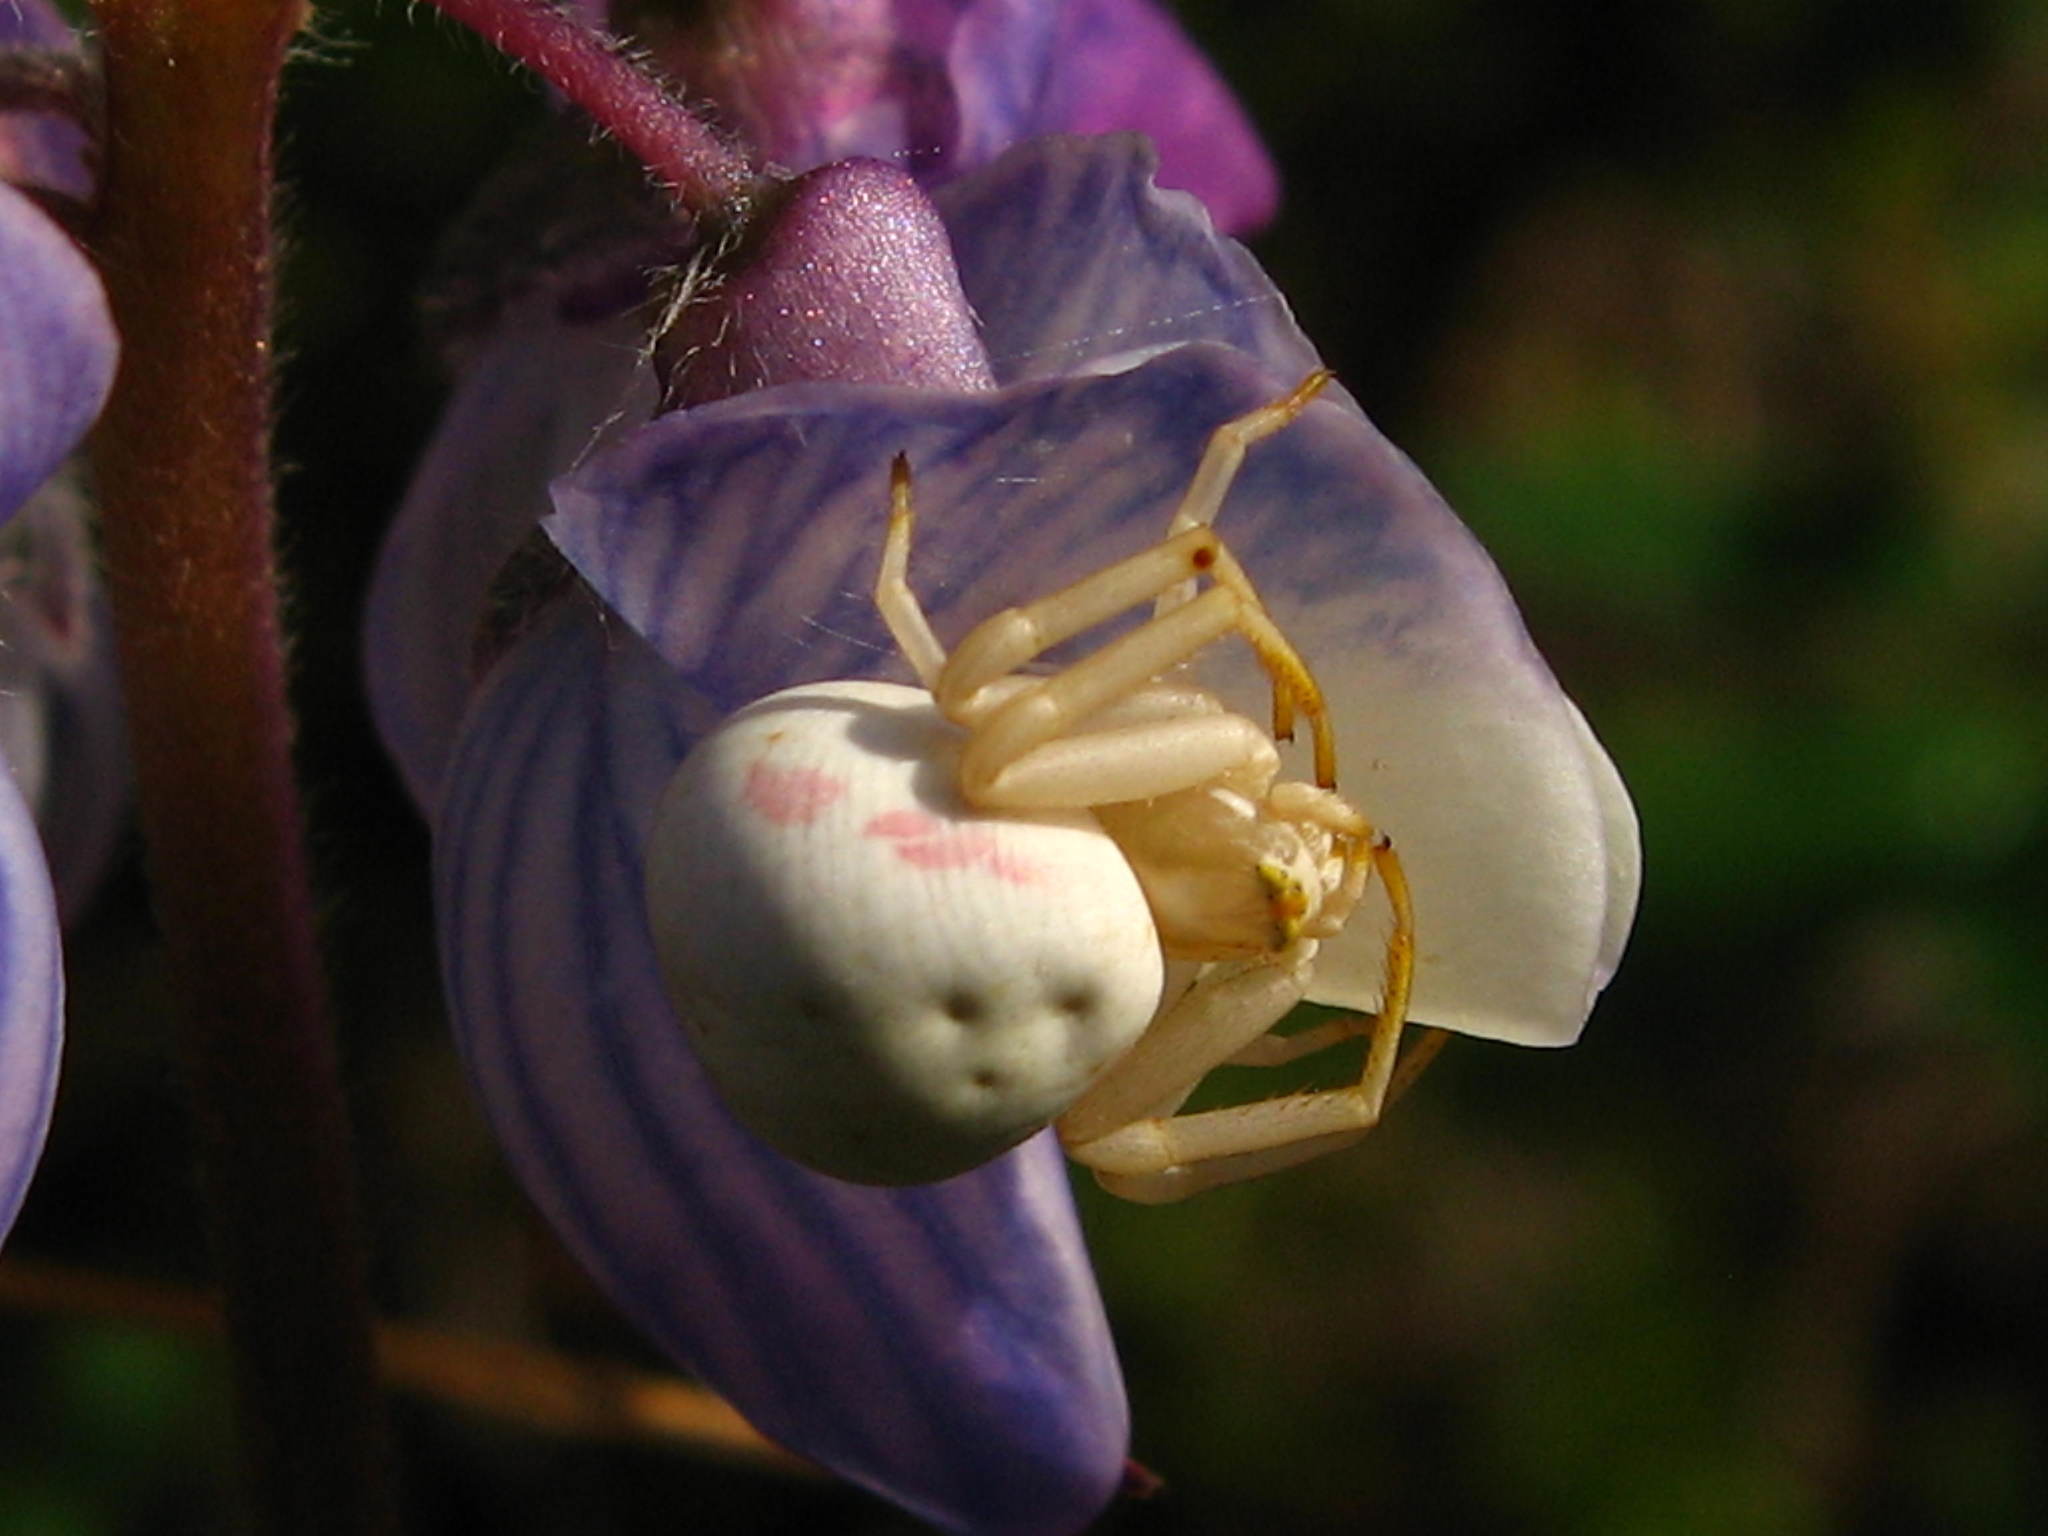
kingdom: Animalia
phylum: Arthropoda
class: Arachnida
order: Araneae
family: Thomisidae
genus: Misumena
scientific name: Misumena vatia
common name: Goldenrod crab spider
